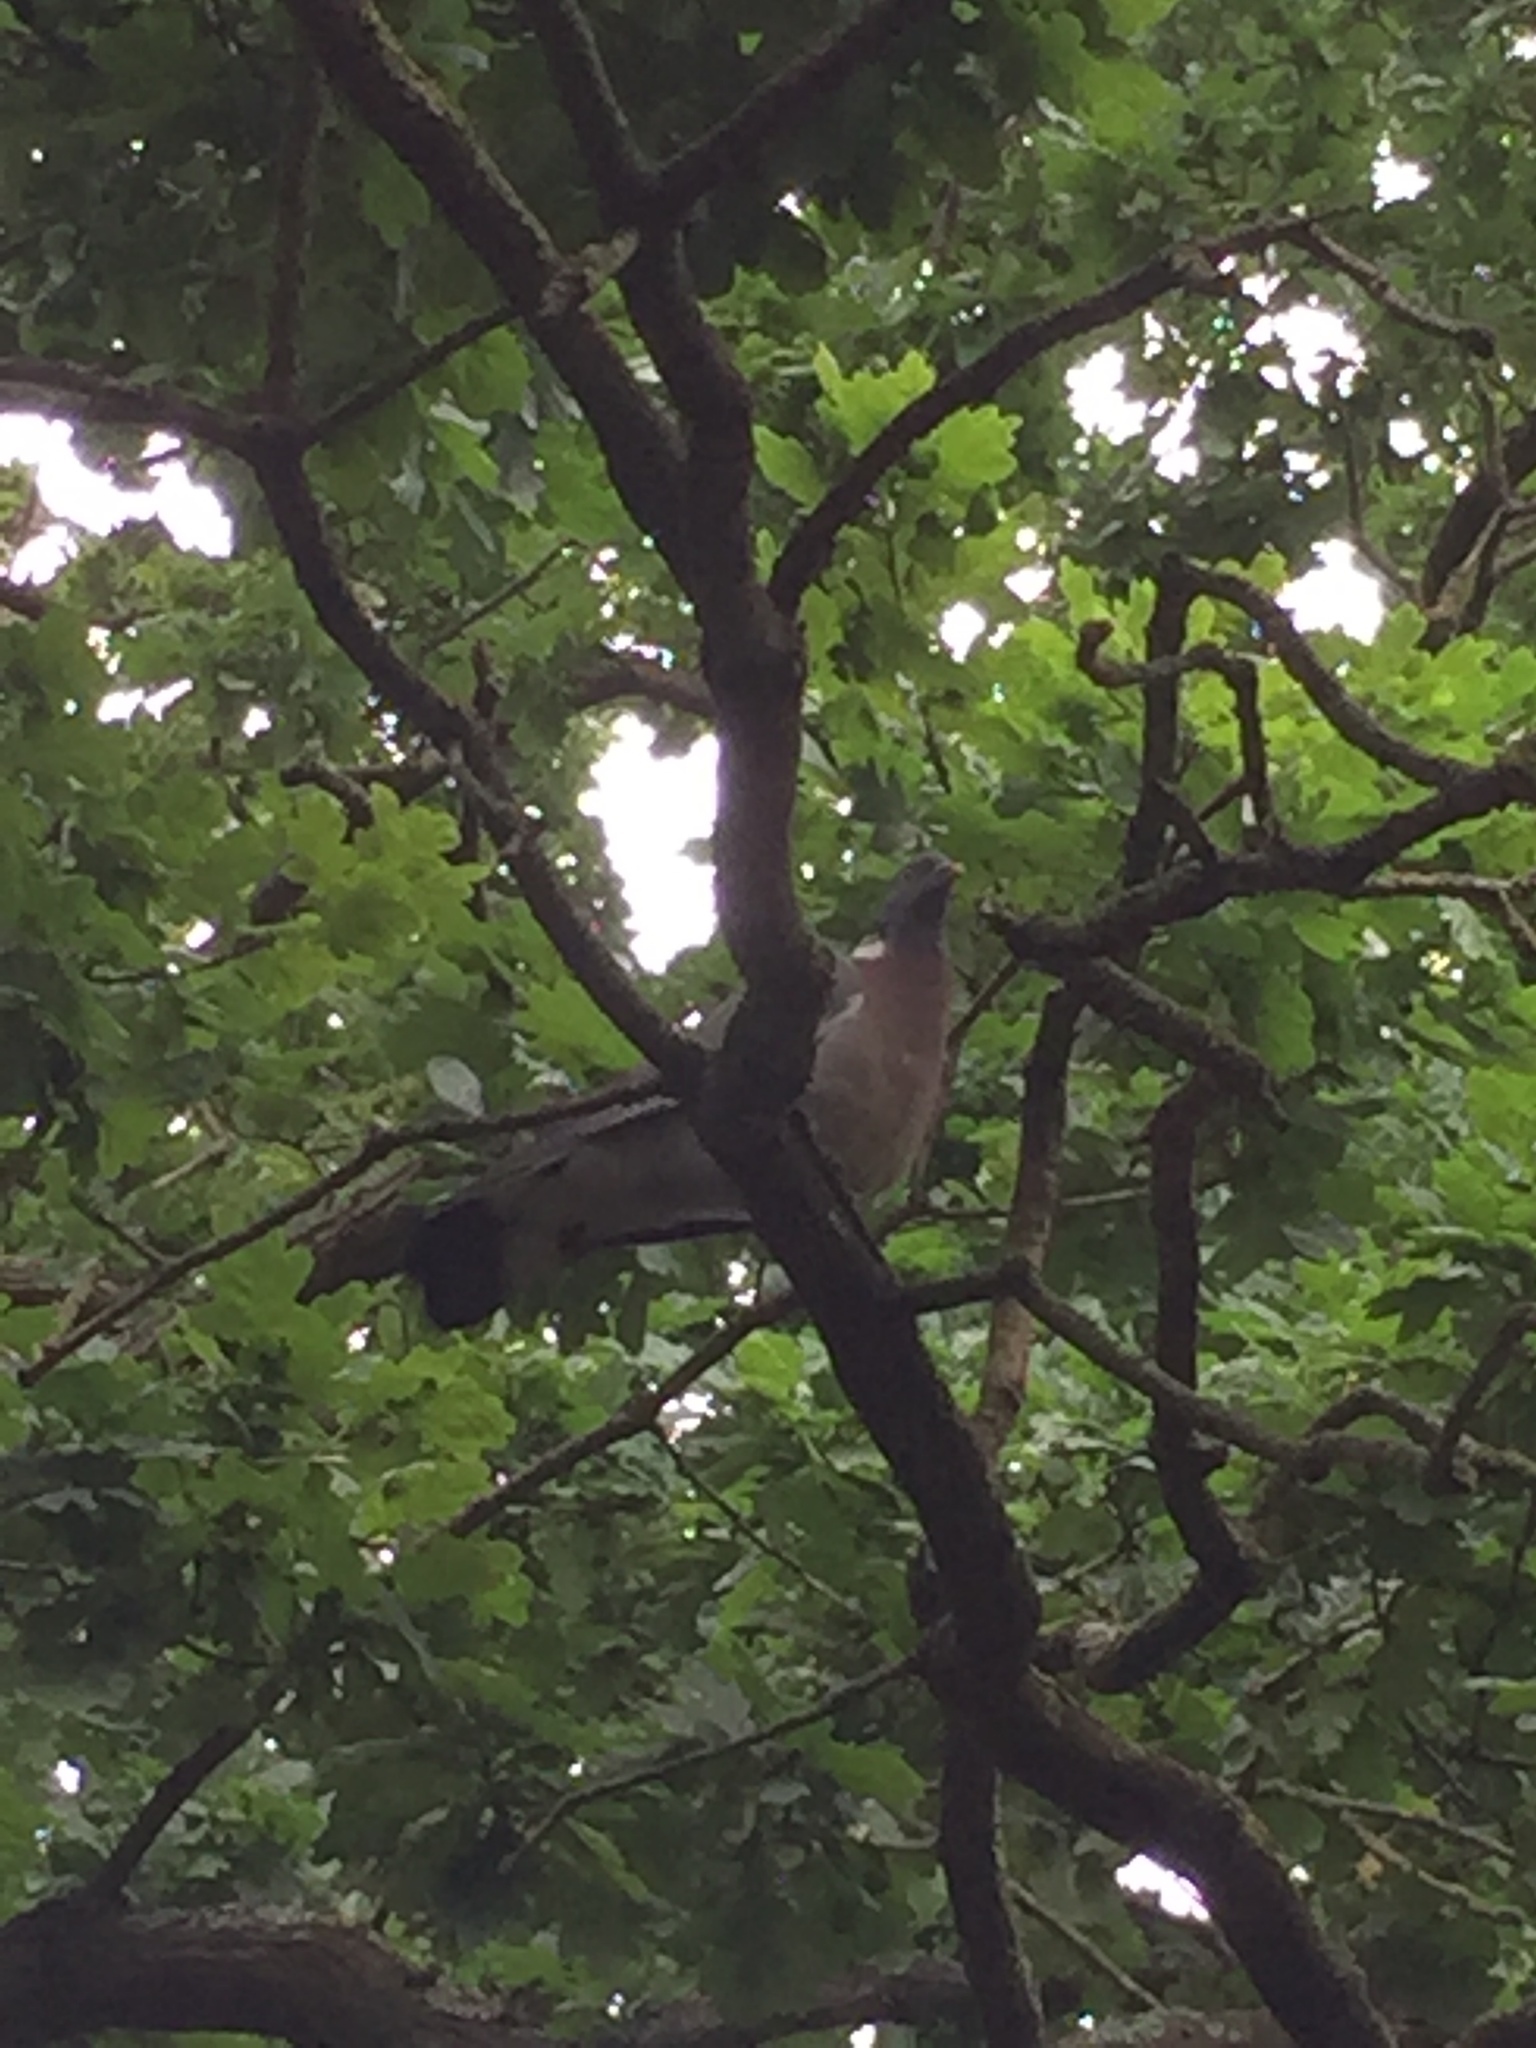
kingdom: Animalia
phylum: Chordata
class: Aves
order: Columbiformes
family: Columbidae
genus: Columba
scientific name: Columba palumbus
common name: Common wood pigeon
